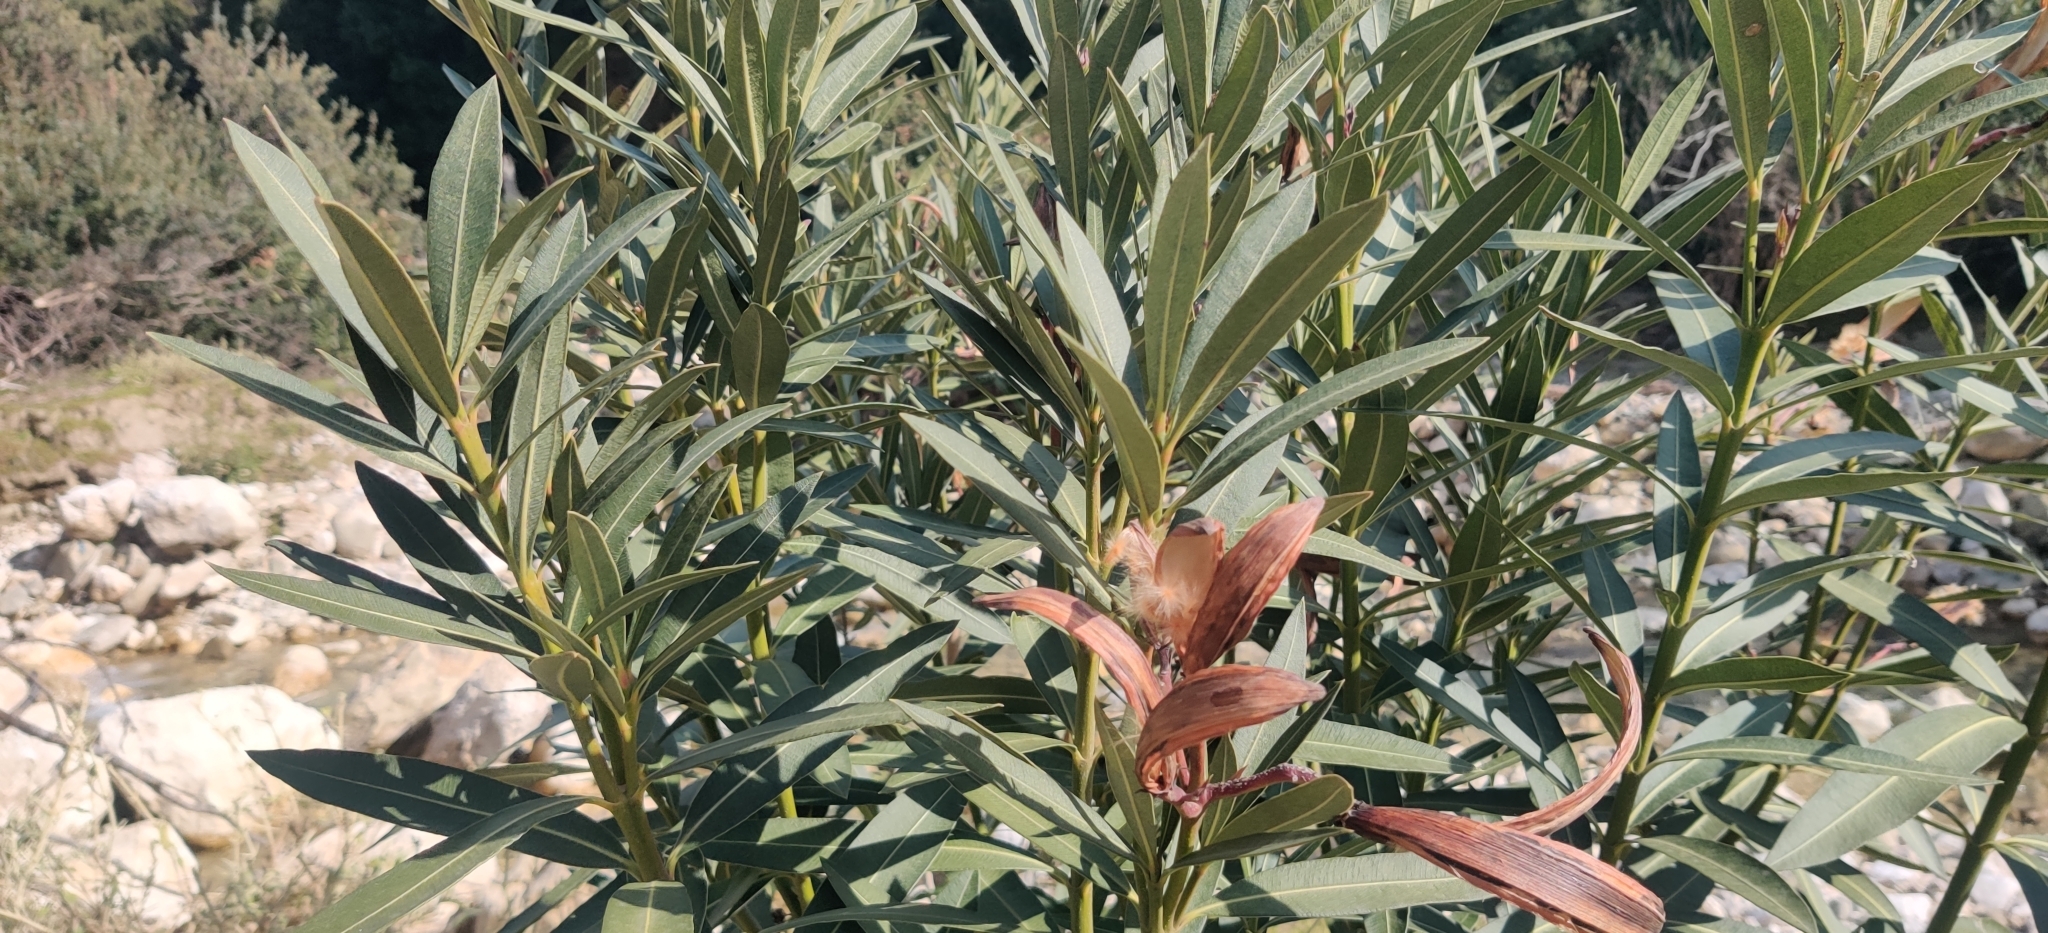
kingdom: Plantae
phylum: Tracheophyta
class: Magnoliopsida
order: Gentianales
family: Apocynaceae
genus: Nerium
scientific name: Nerium oleander
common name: Oleander
